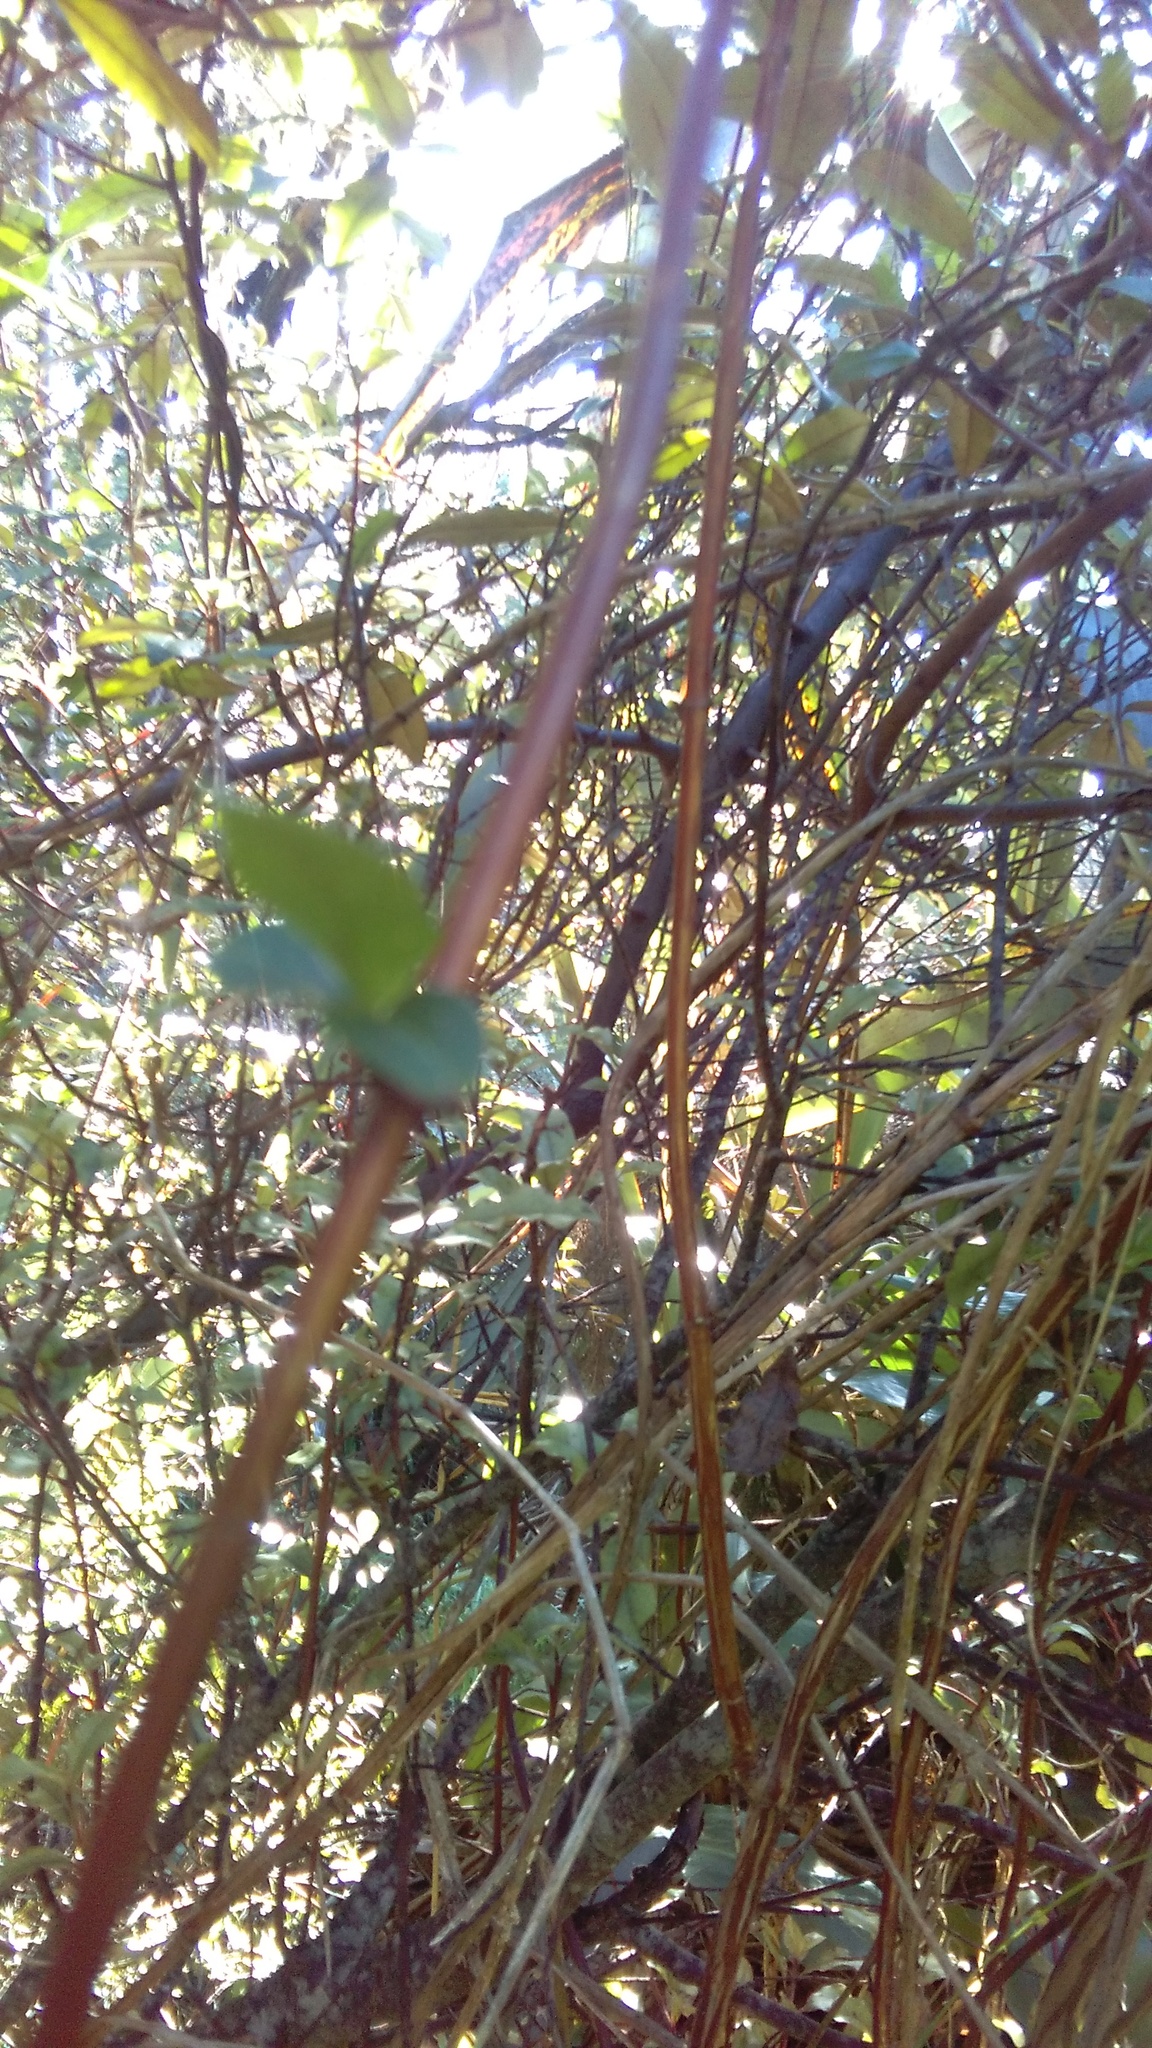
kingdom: Plantae
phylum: Tracheophyta
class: Magnoliopsida
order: Dipsacales
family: Caprifoliaceae
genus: Lonicera
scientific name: Lonicera japonica
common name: Japanese honeysuckle
